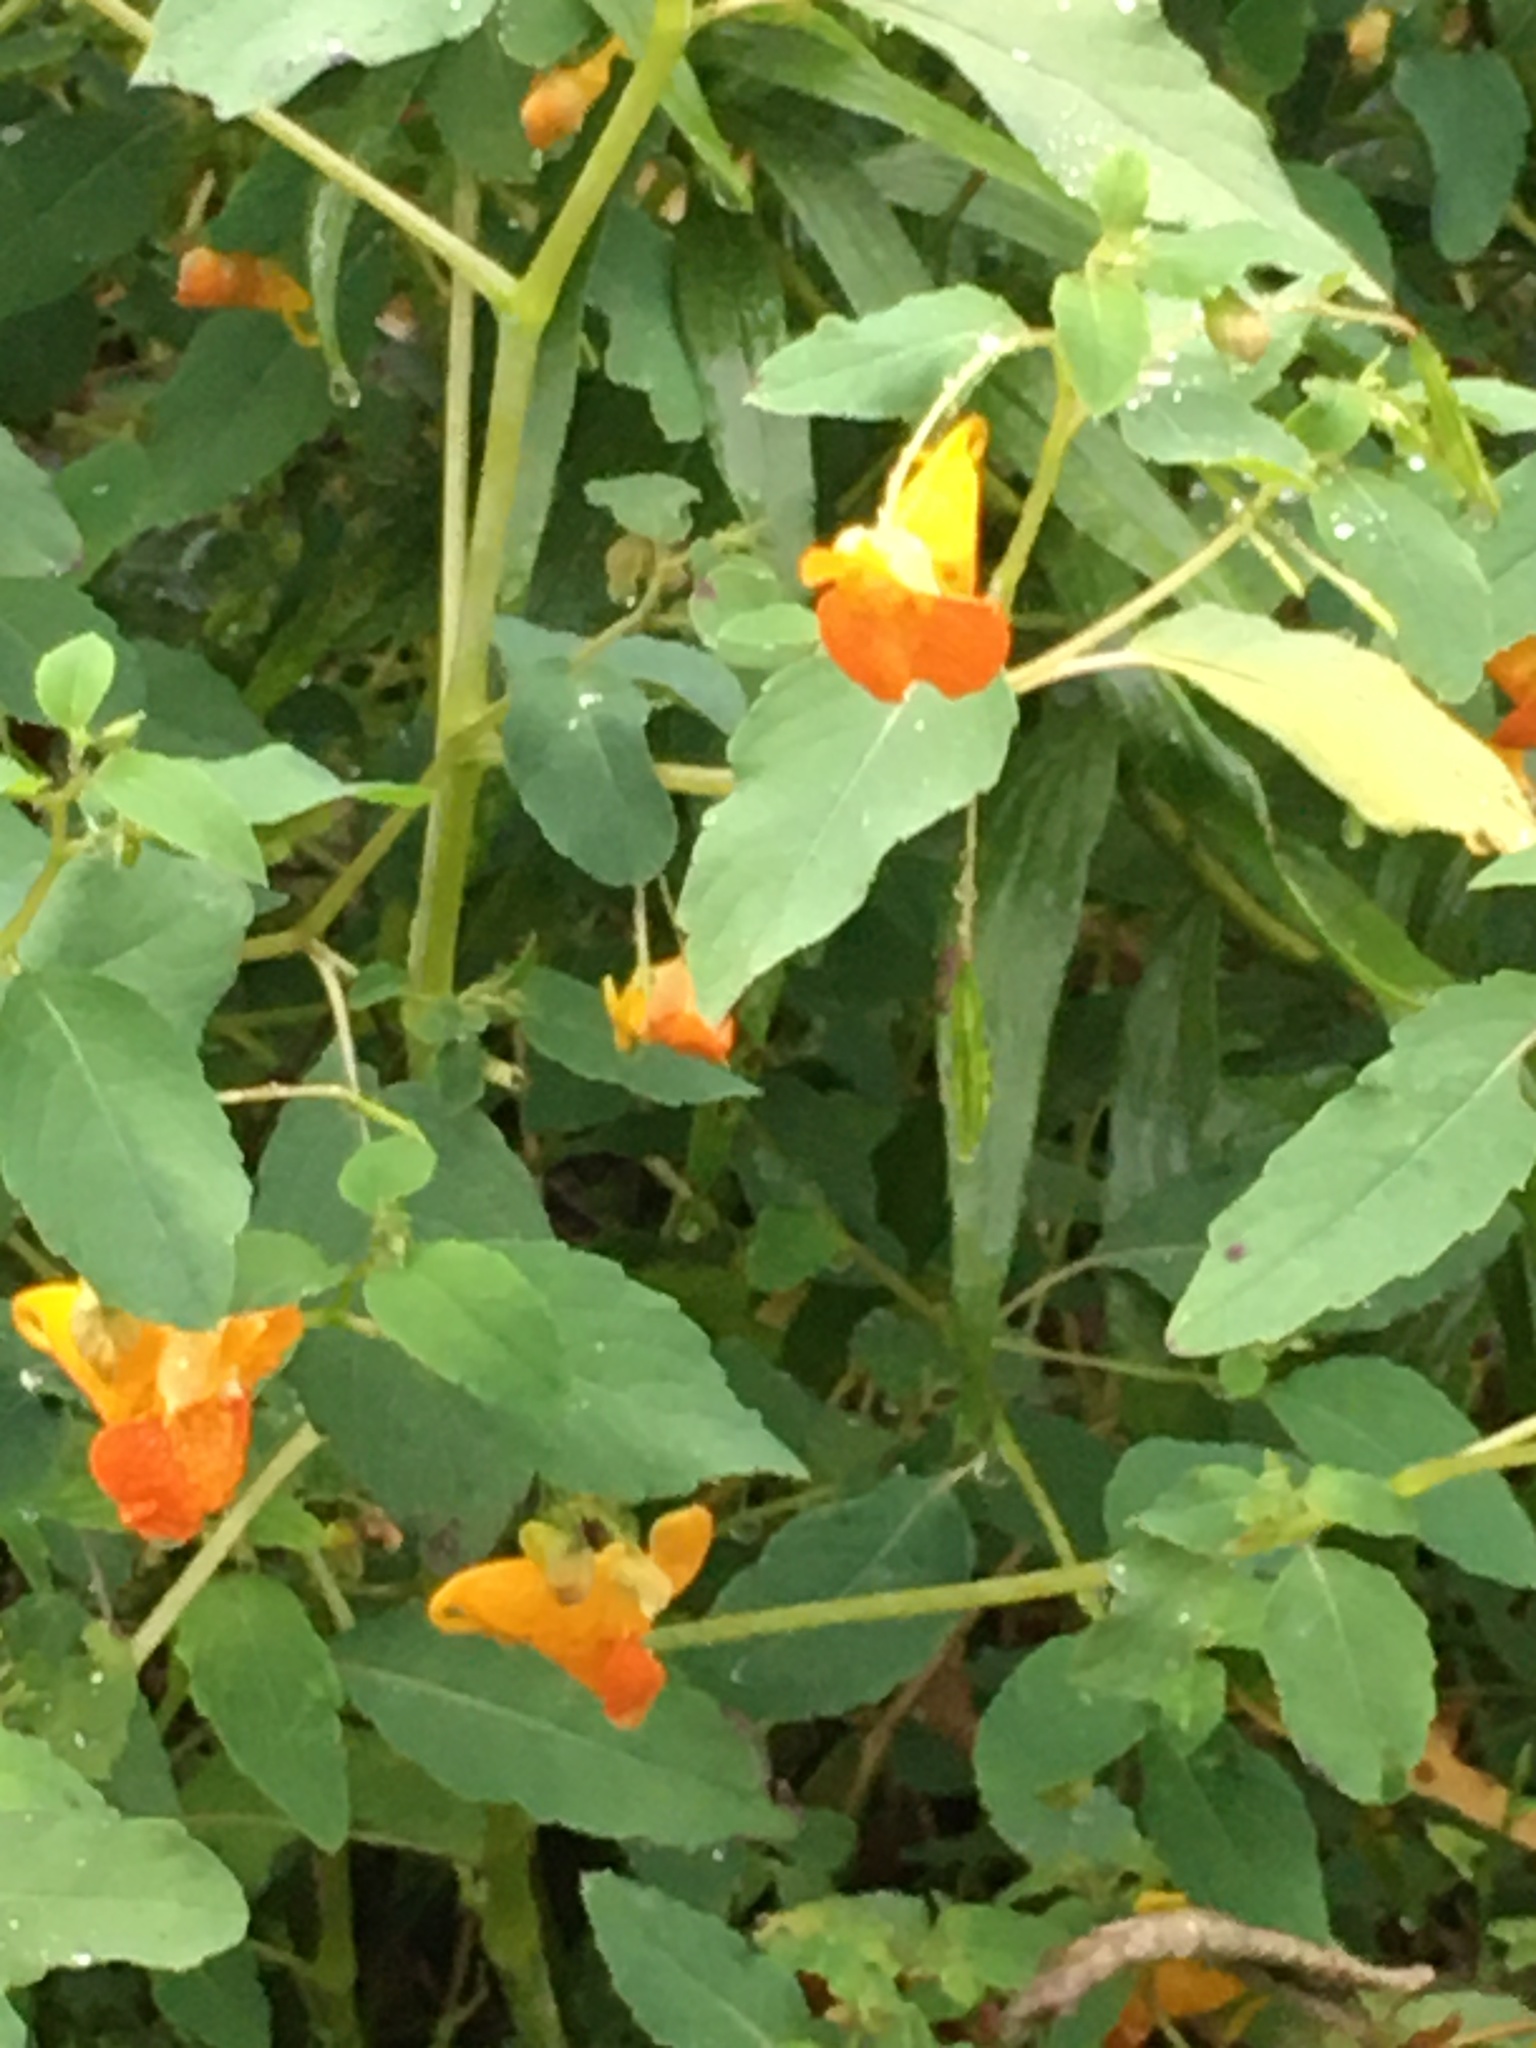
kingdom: Plantae
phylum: Tracheophyta
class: Magnoliopsida
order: Ericales
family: Balsaminaceae
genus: Impatiens
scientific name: Impatiens capensis
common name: Orange balsam
